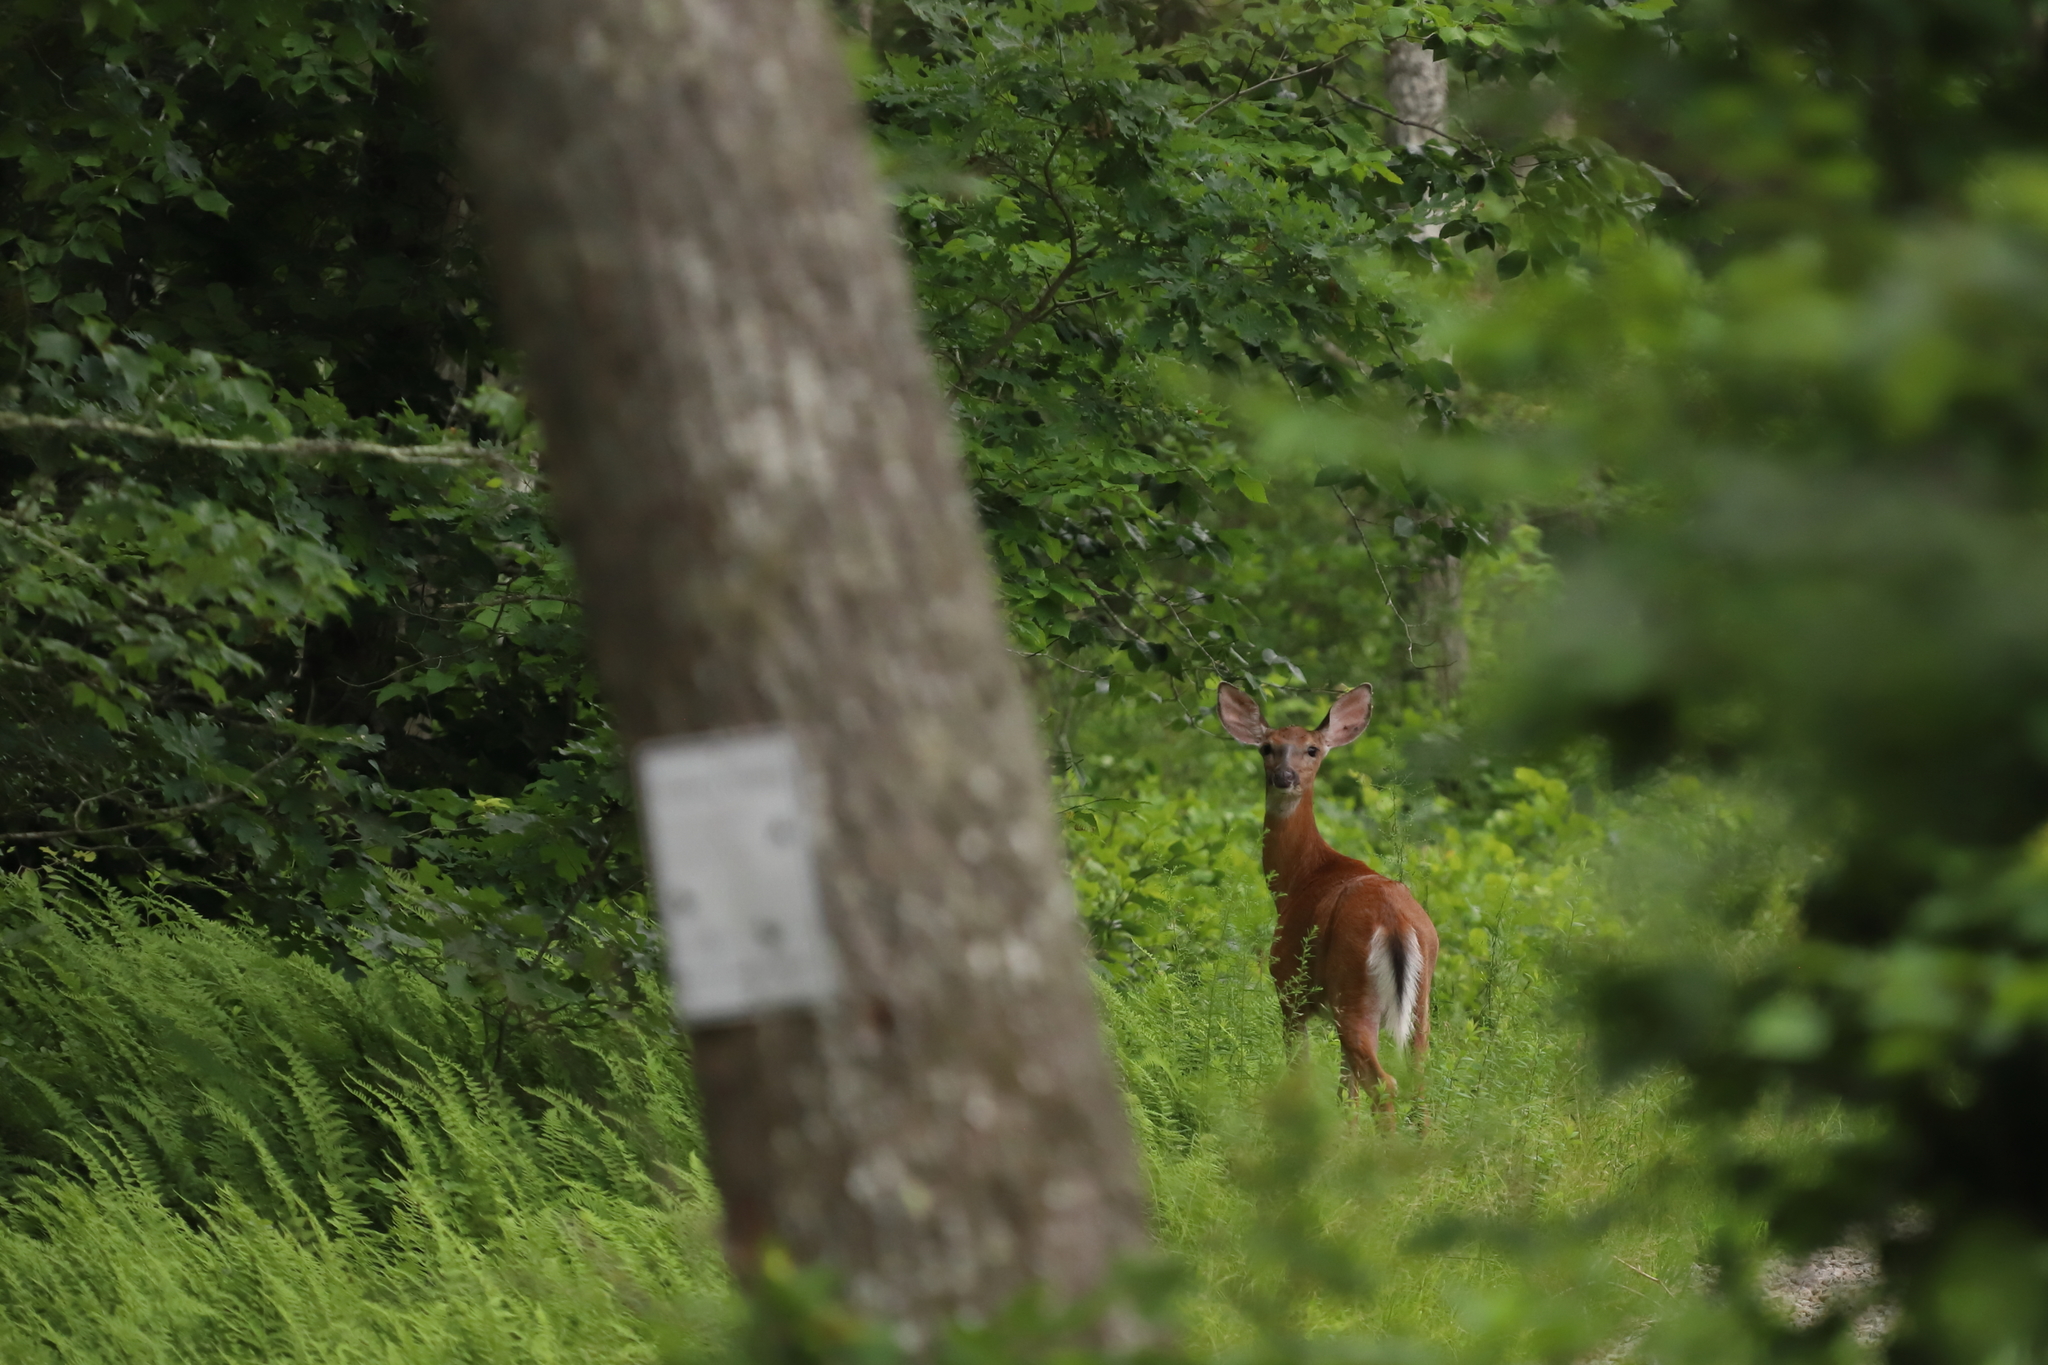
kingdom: Animalia
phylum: Chordata
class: Mammalia
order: Artiodactyla
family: Cervidae
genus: Odocoileus
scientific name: Odocoileus virginianus
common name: White-tailed deer
